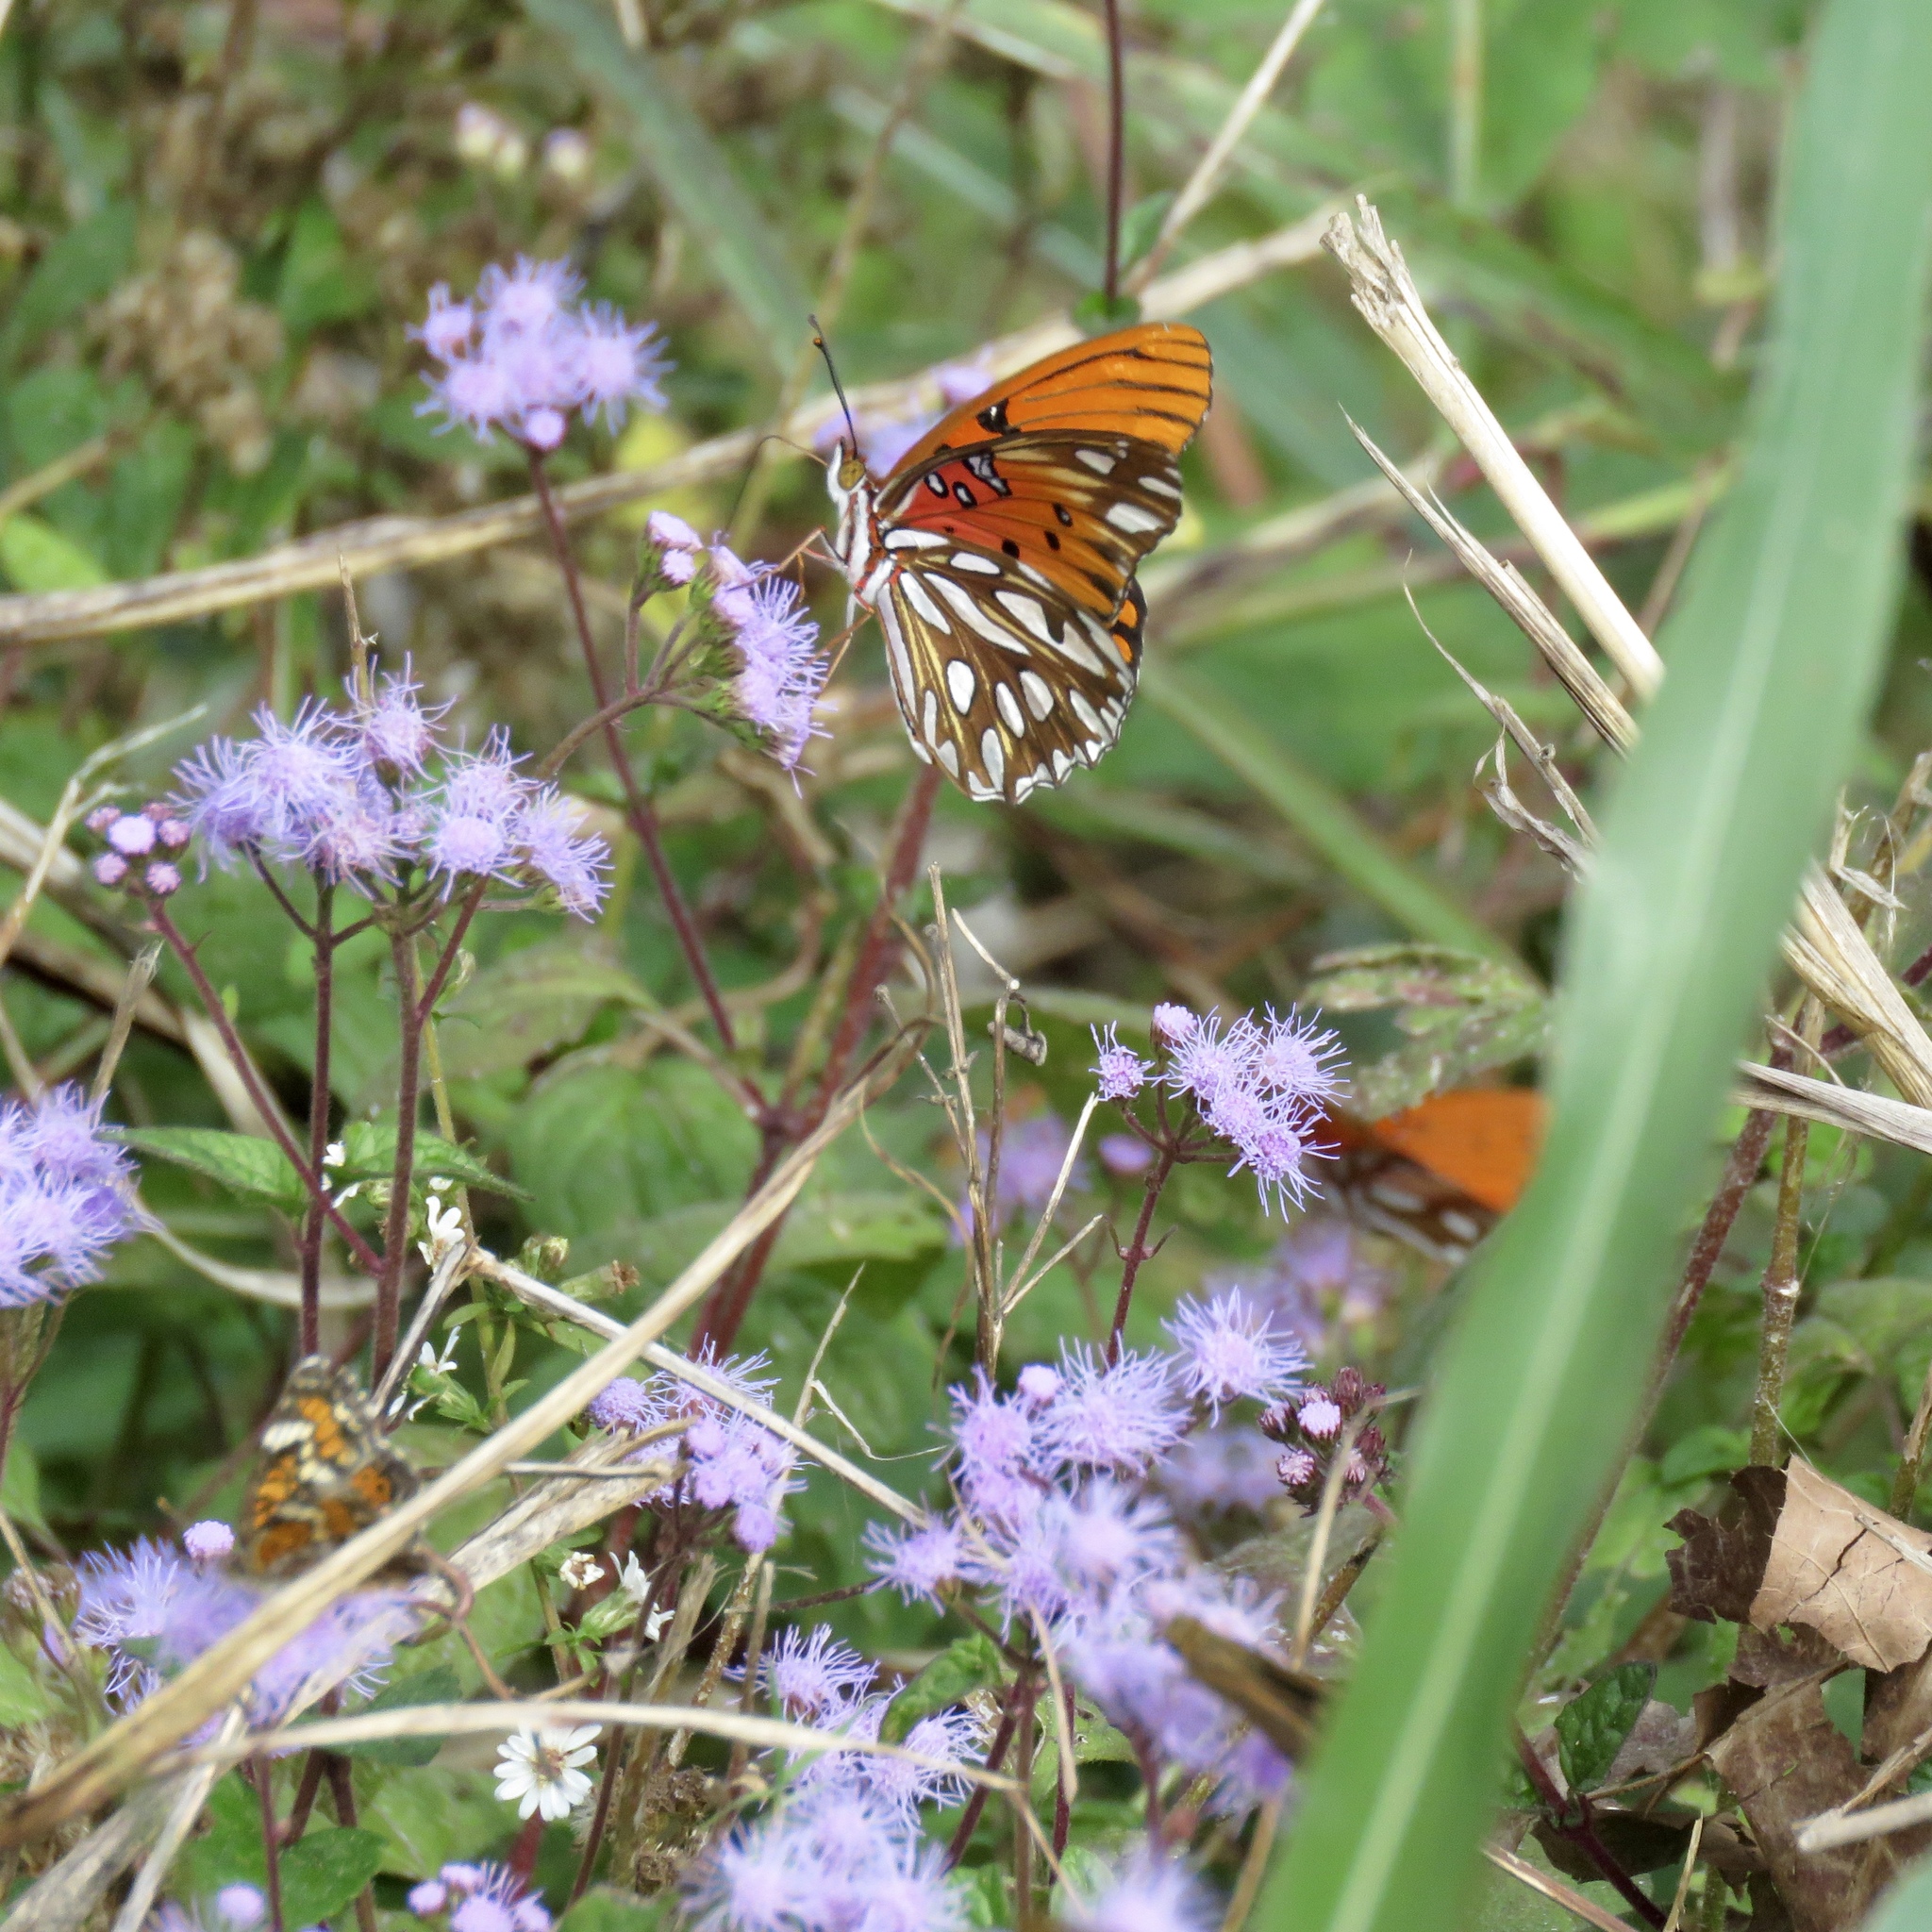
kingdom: Animalia
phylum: Arthropoda
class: Insecta
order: Lepidoptera
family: Nymphalidae
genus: Dione
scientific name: Dione vanillae
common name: Gulf fritillary
